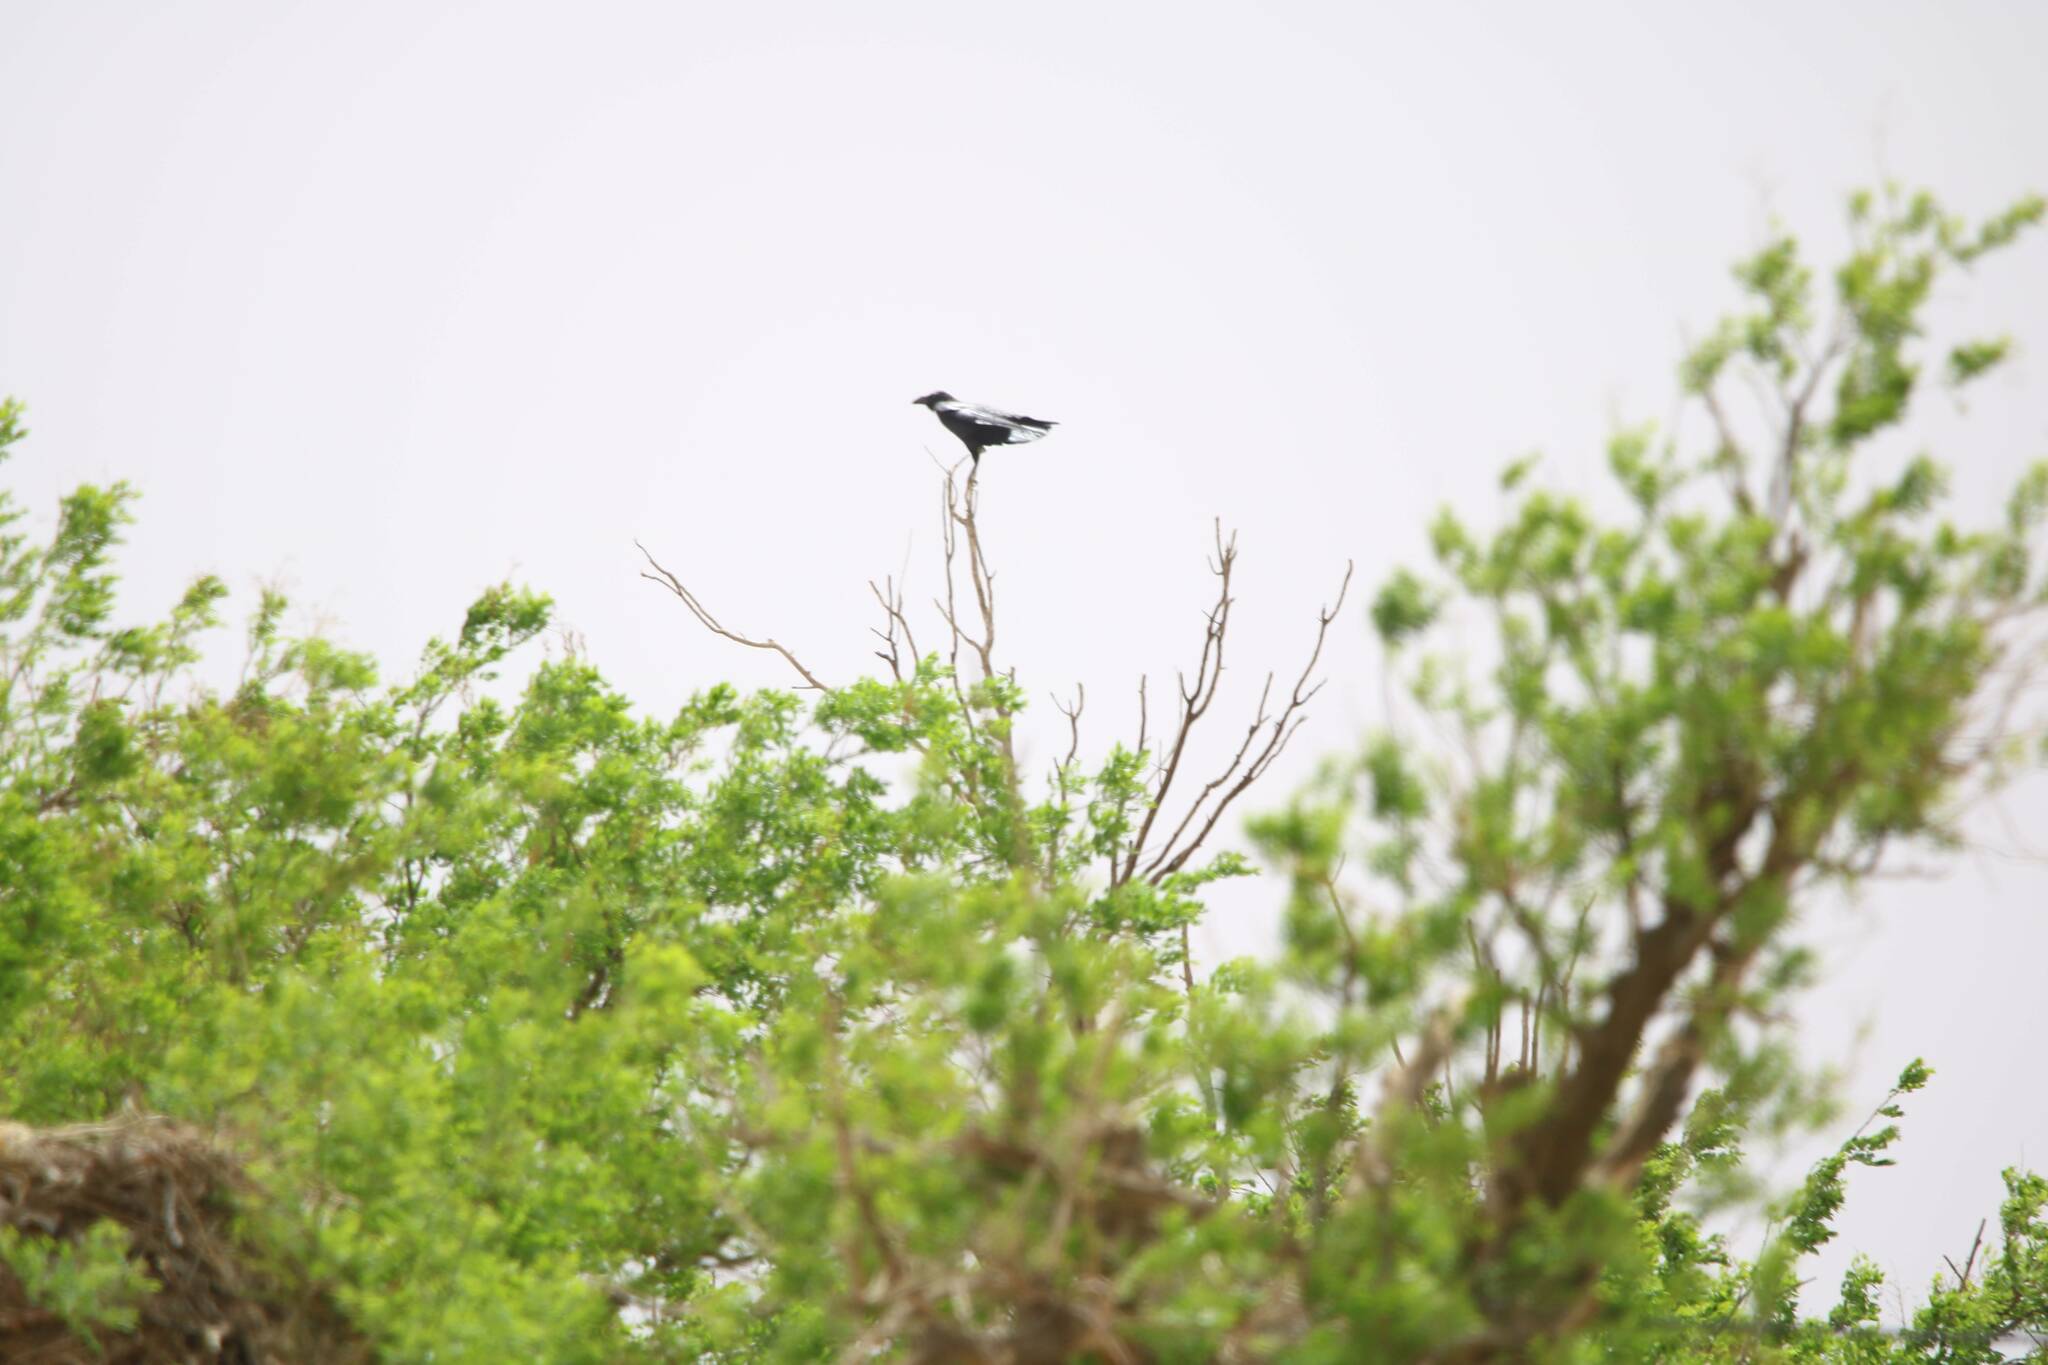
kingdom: Animalia
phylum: Chordata
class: Aves
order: Passeriformes
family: Corvidae
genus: Corvus
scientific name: Corvus corax
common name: Common raven
